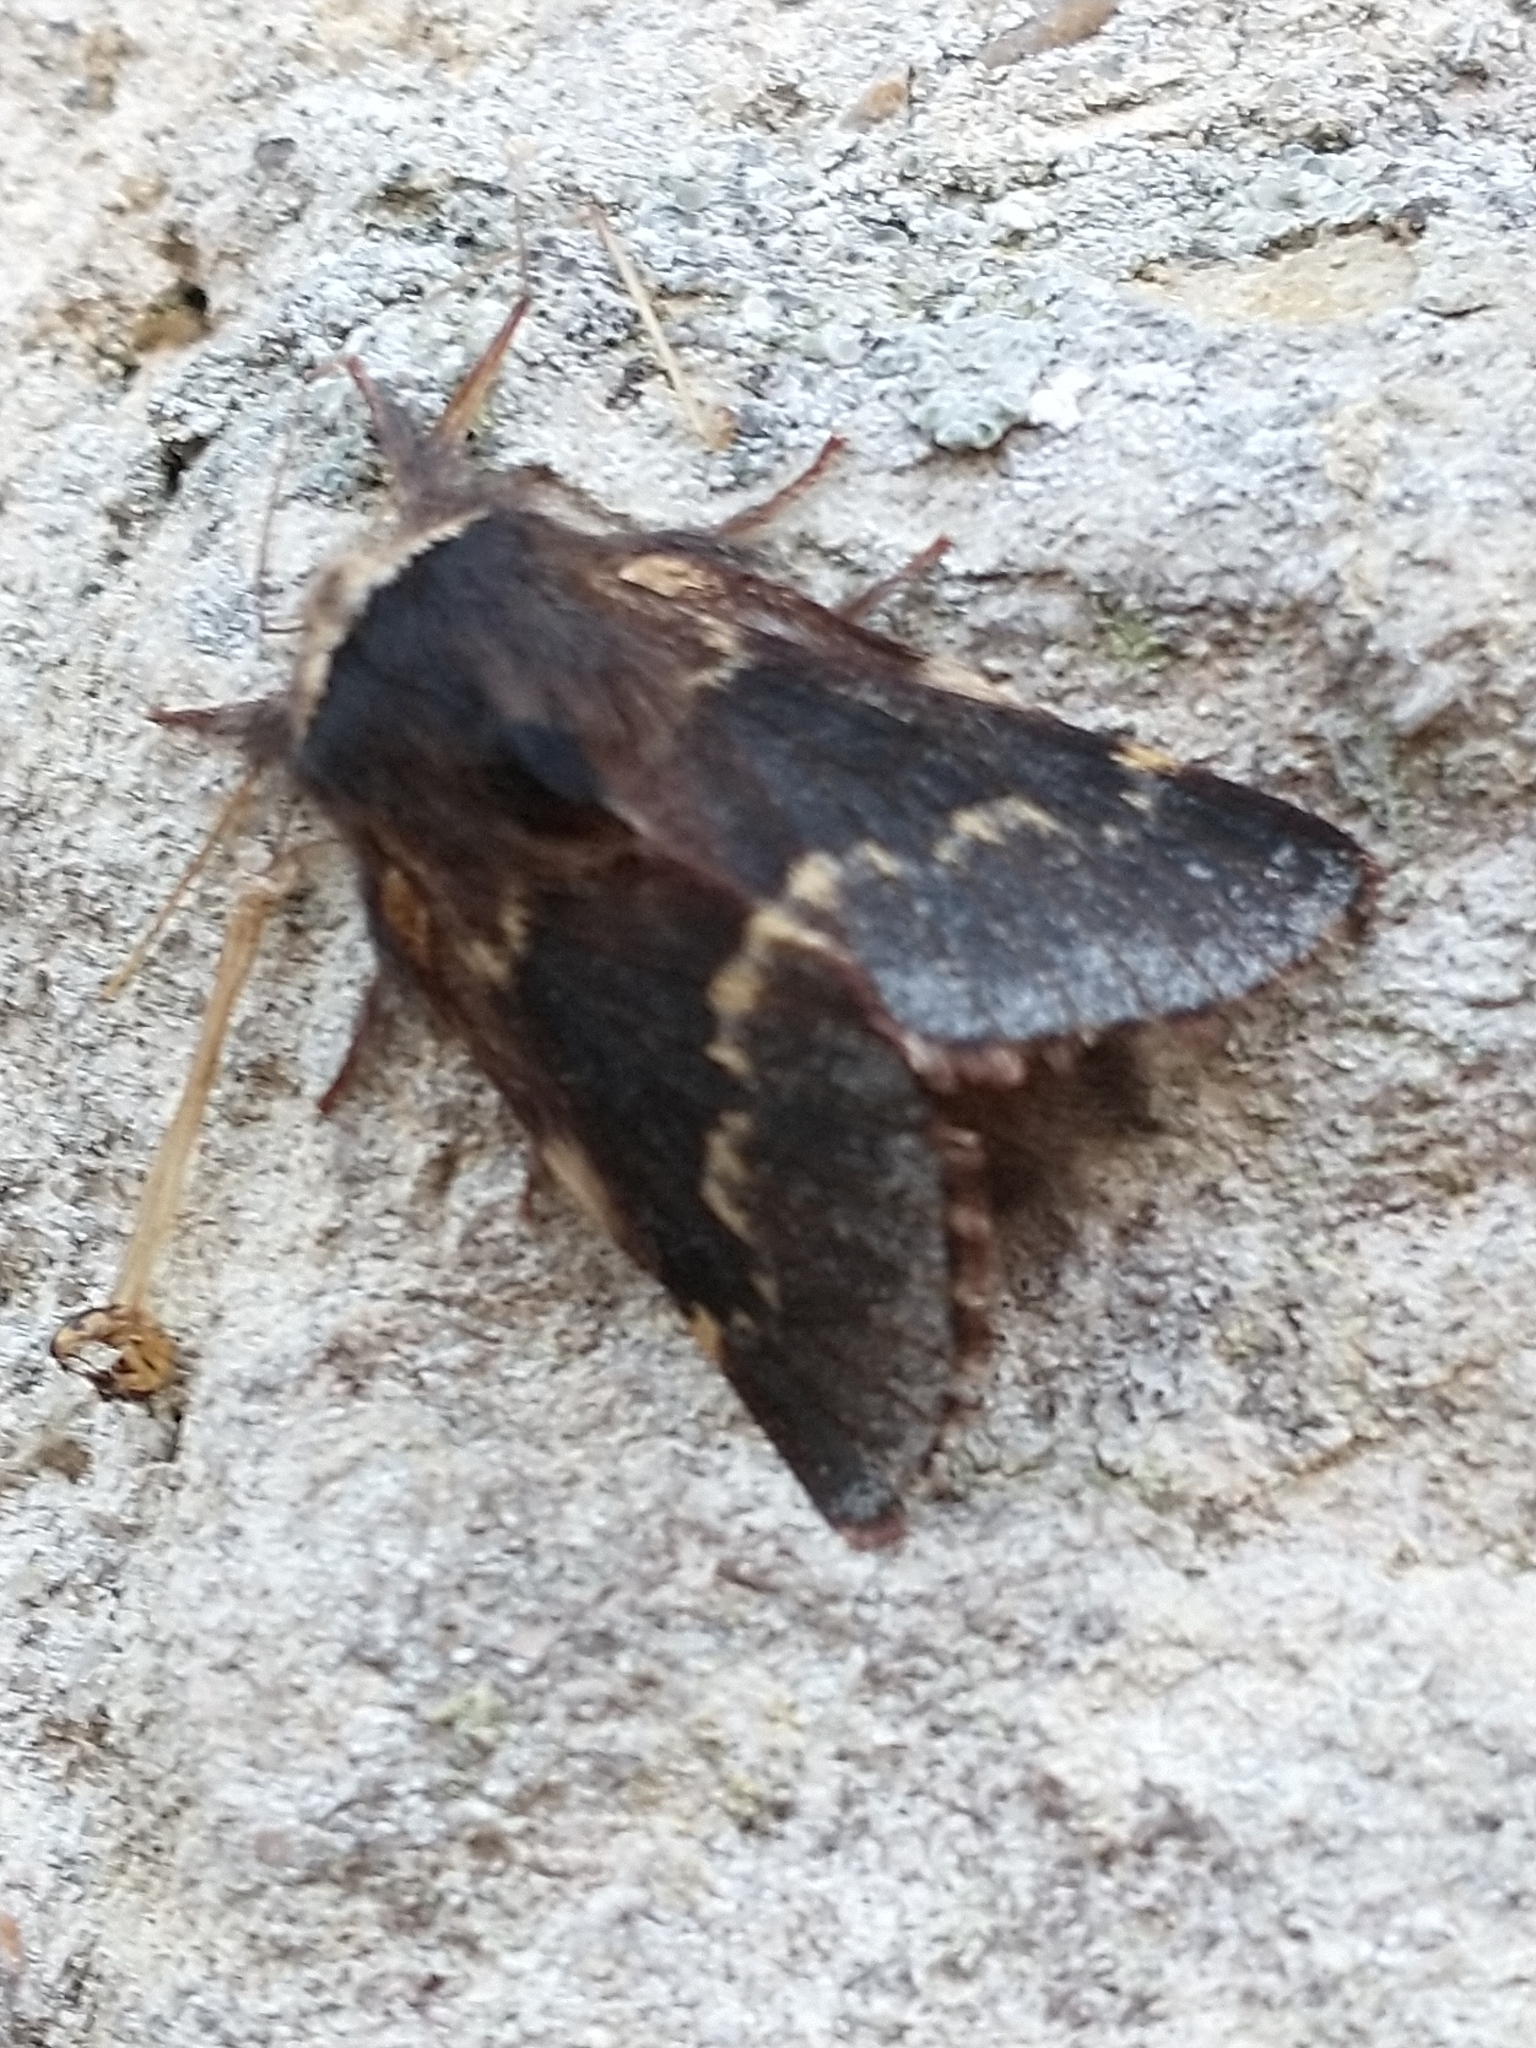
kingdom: Animalia
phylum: Arthropoda
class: Insecta
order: Lepidoptera
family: Lasiocampidae
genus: Poecilocampa
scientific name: Poecilocampa populi
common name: December moth
